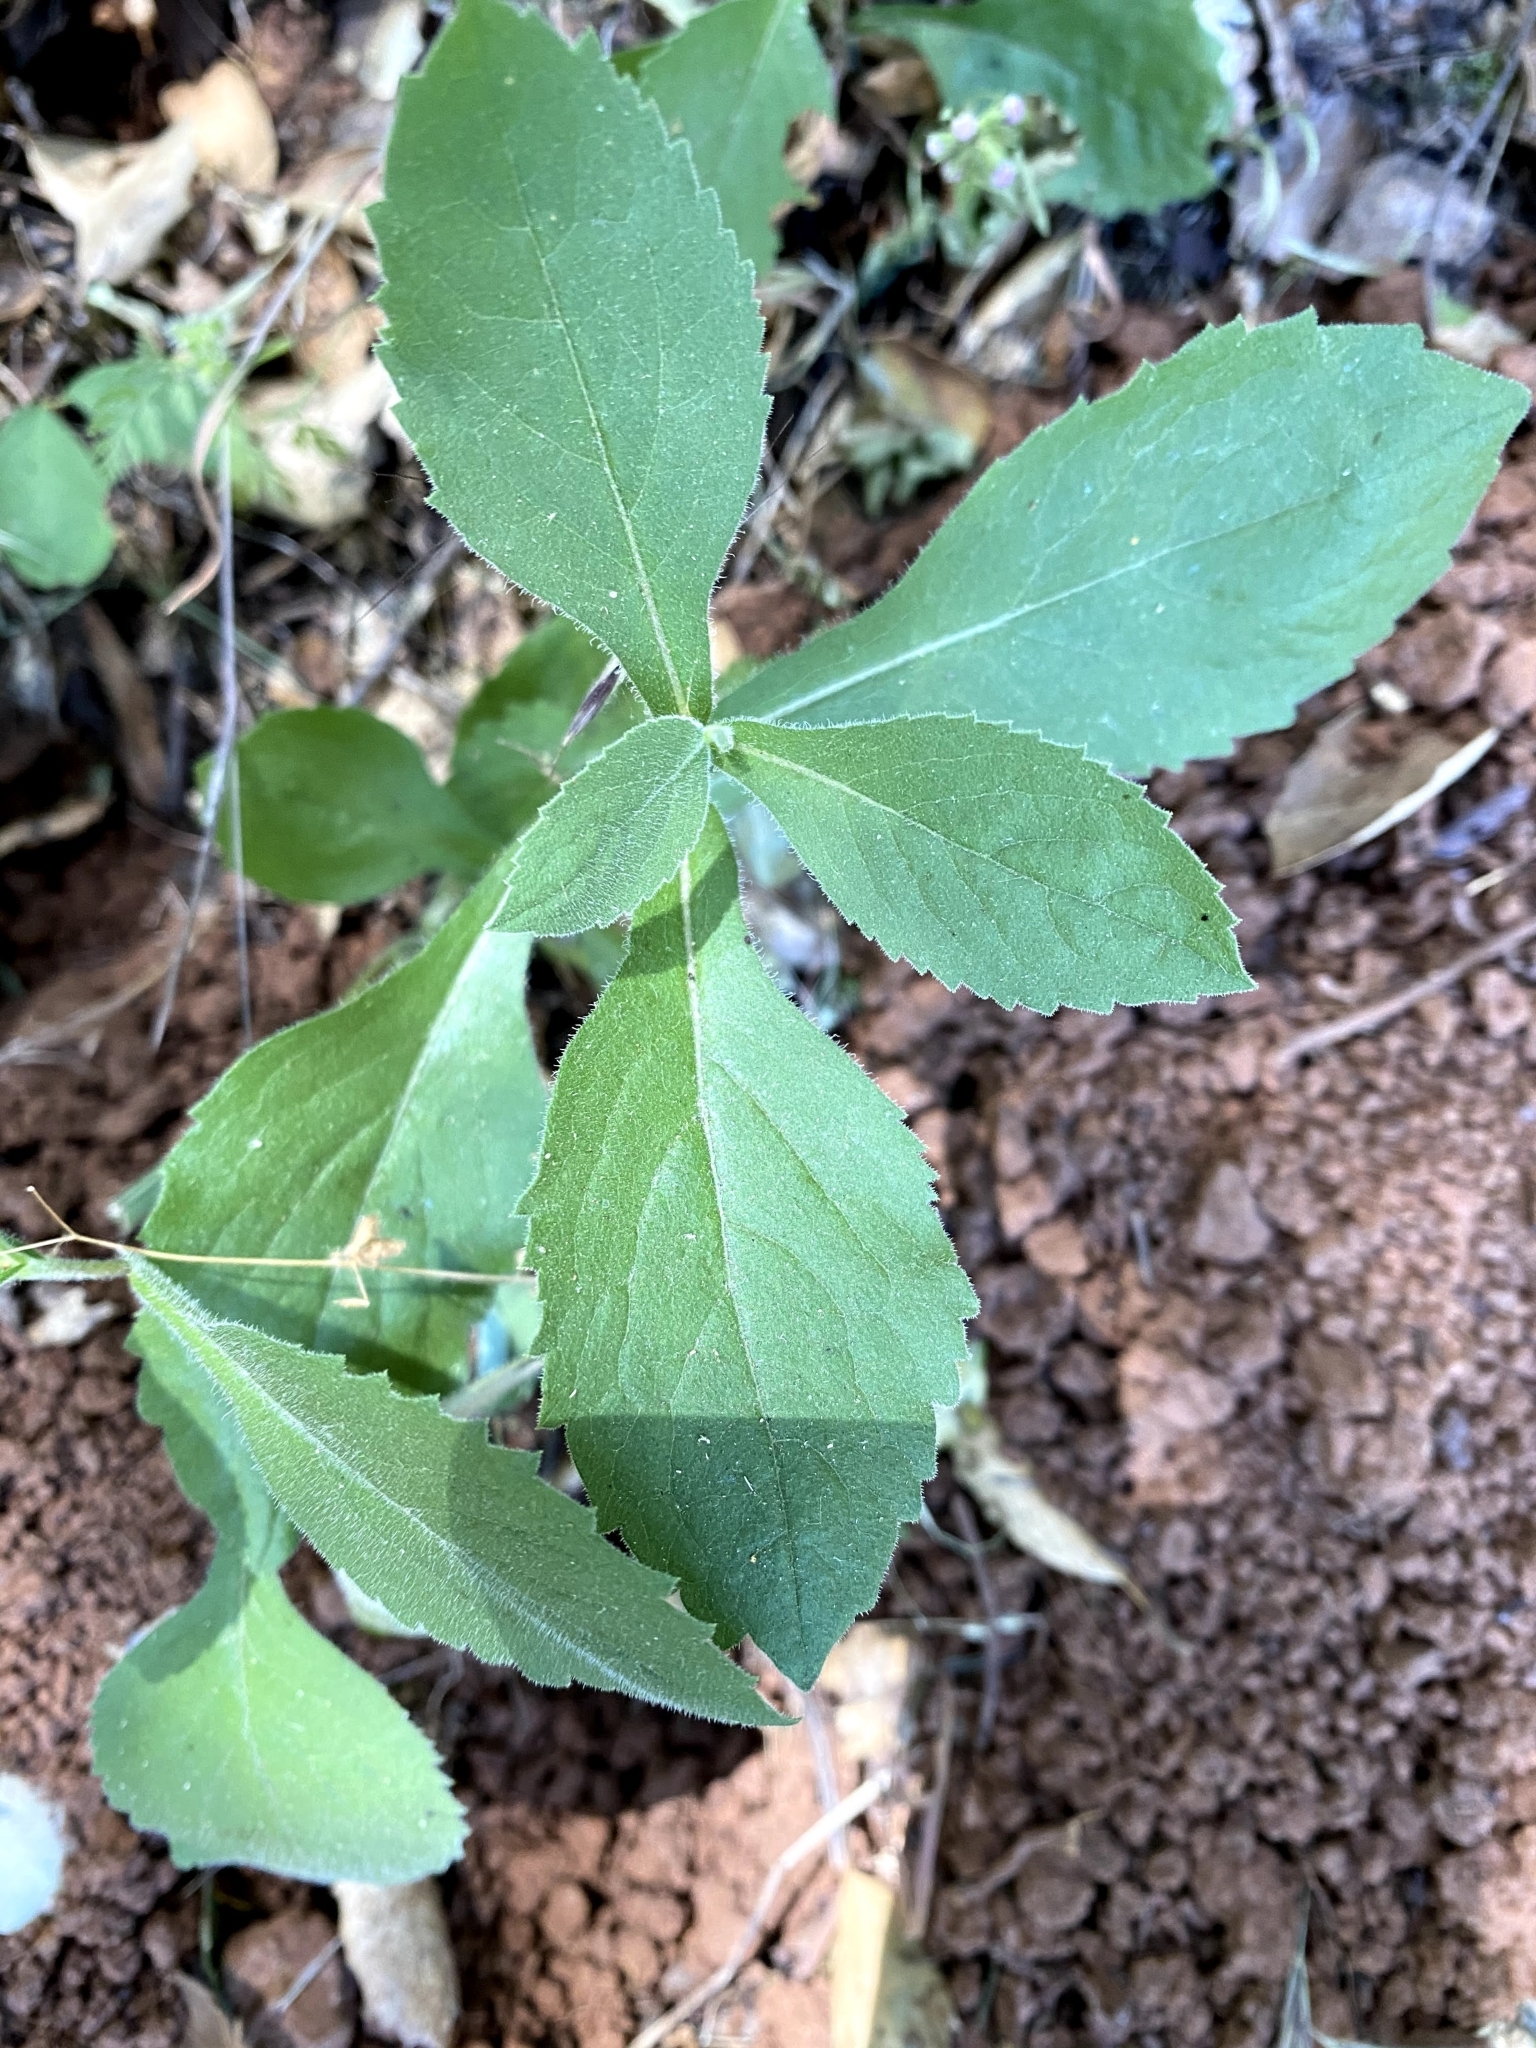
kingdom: Plantae
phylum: Tracheophyta
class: Magnoliopsida
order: Asterales
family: Asteraceae
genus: Eurybia
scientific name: Eurybia radulina
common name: Rough-leaved aster
